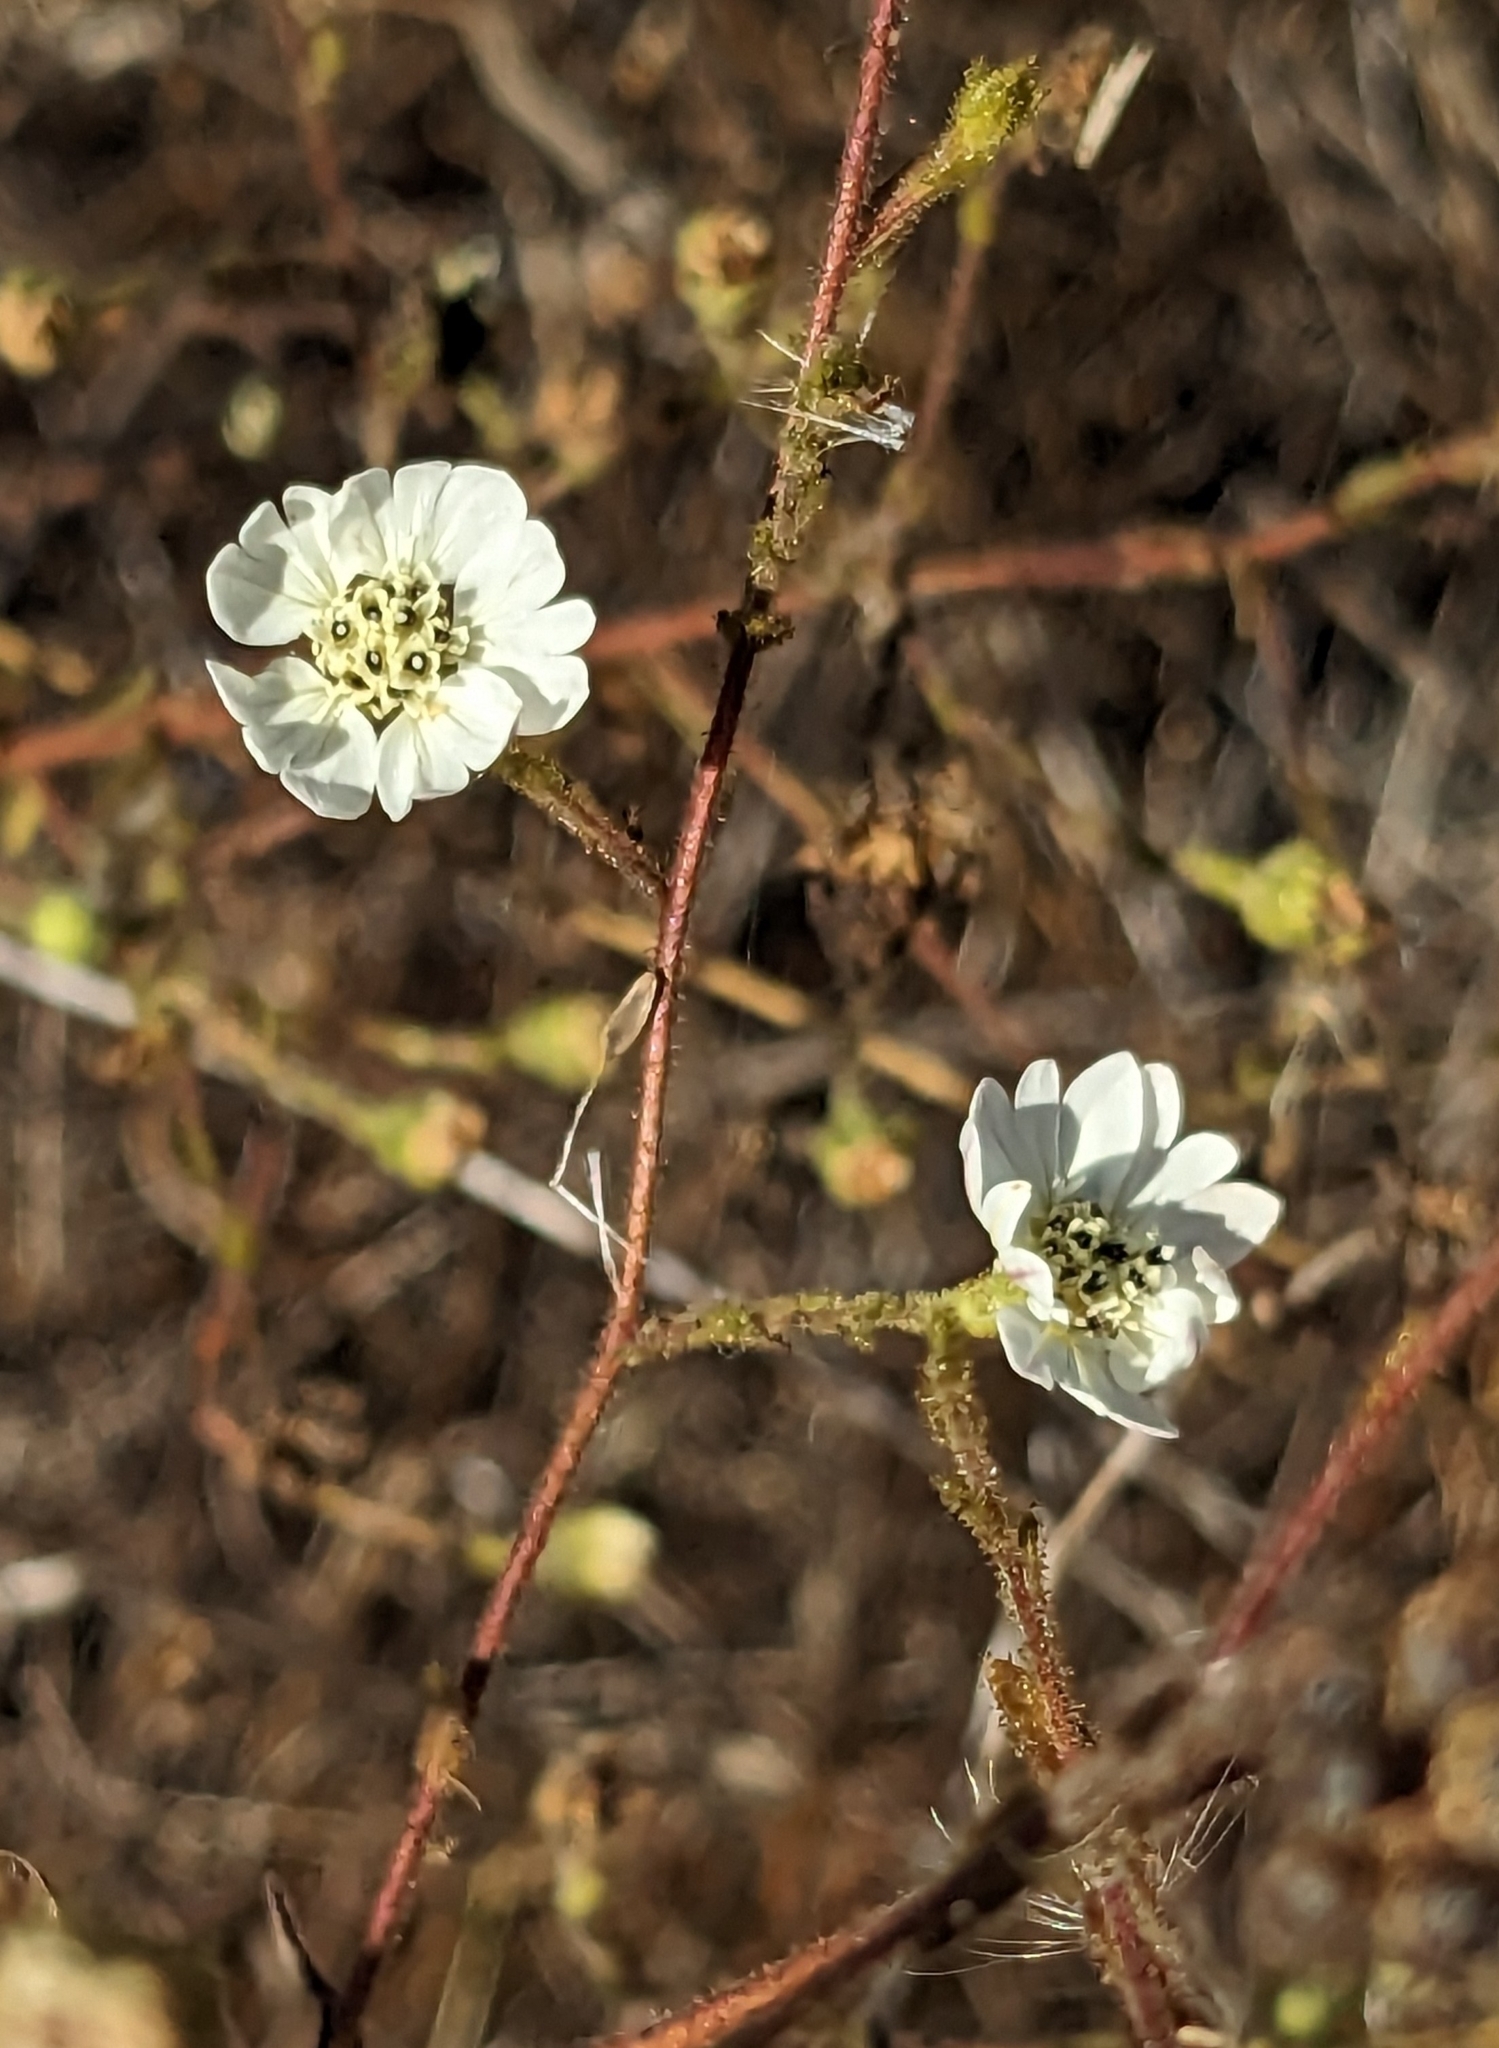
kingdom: Plantae
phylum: Tracheophyta
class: Magnoliopsida
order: Asterales
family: Asteraceae
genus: Hemizonia
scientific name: Hemizonia congesta
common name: Hayfield tarweed
